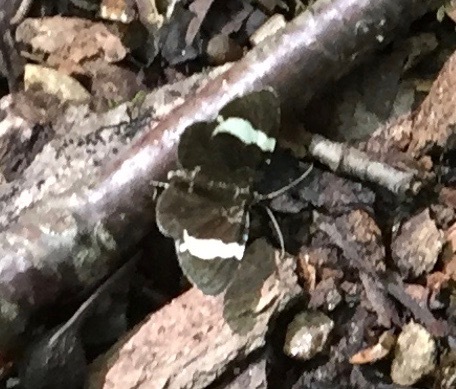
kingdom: Animalia
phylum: Arthropoda
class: Insecta
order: Lepidoptera
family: Geometridae
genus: Trichodezia
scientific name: Trichodezia albovittata
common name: White striped black
